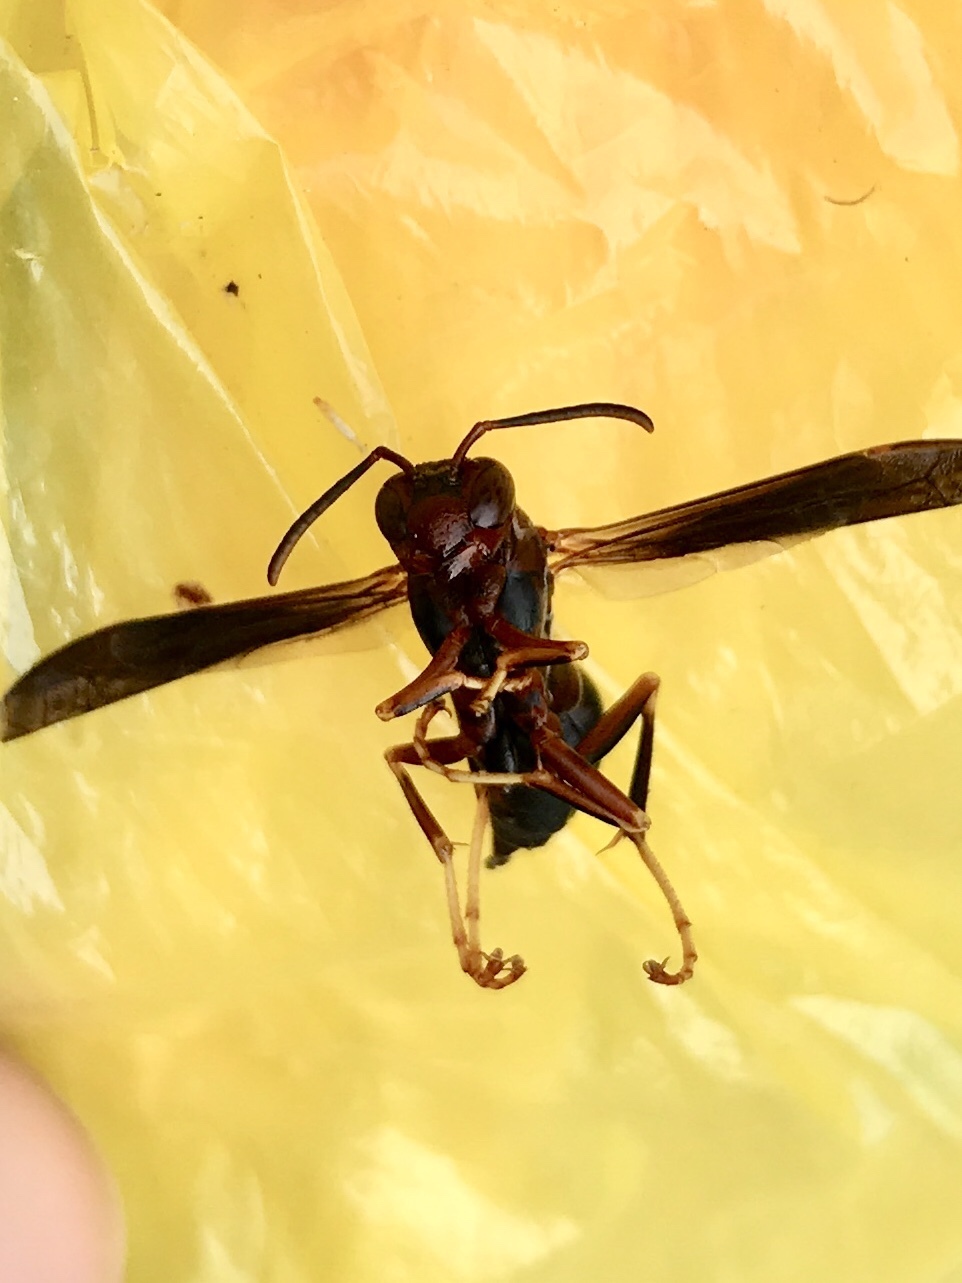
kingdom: Animalia
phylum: Arthropoda
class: Insecta
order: Hymenoptera
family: Eumenidae
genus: Polistes
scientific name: Polistes metricus
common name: Metric paper wasp
